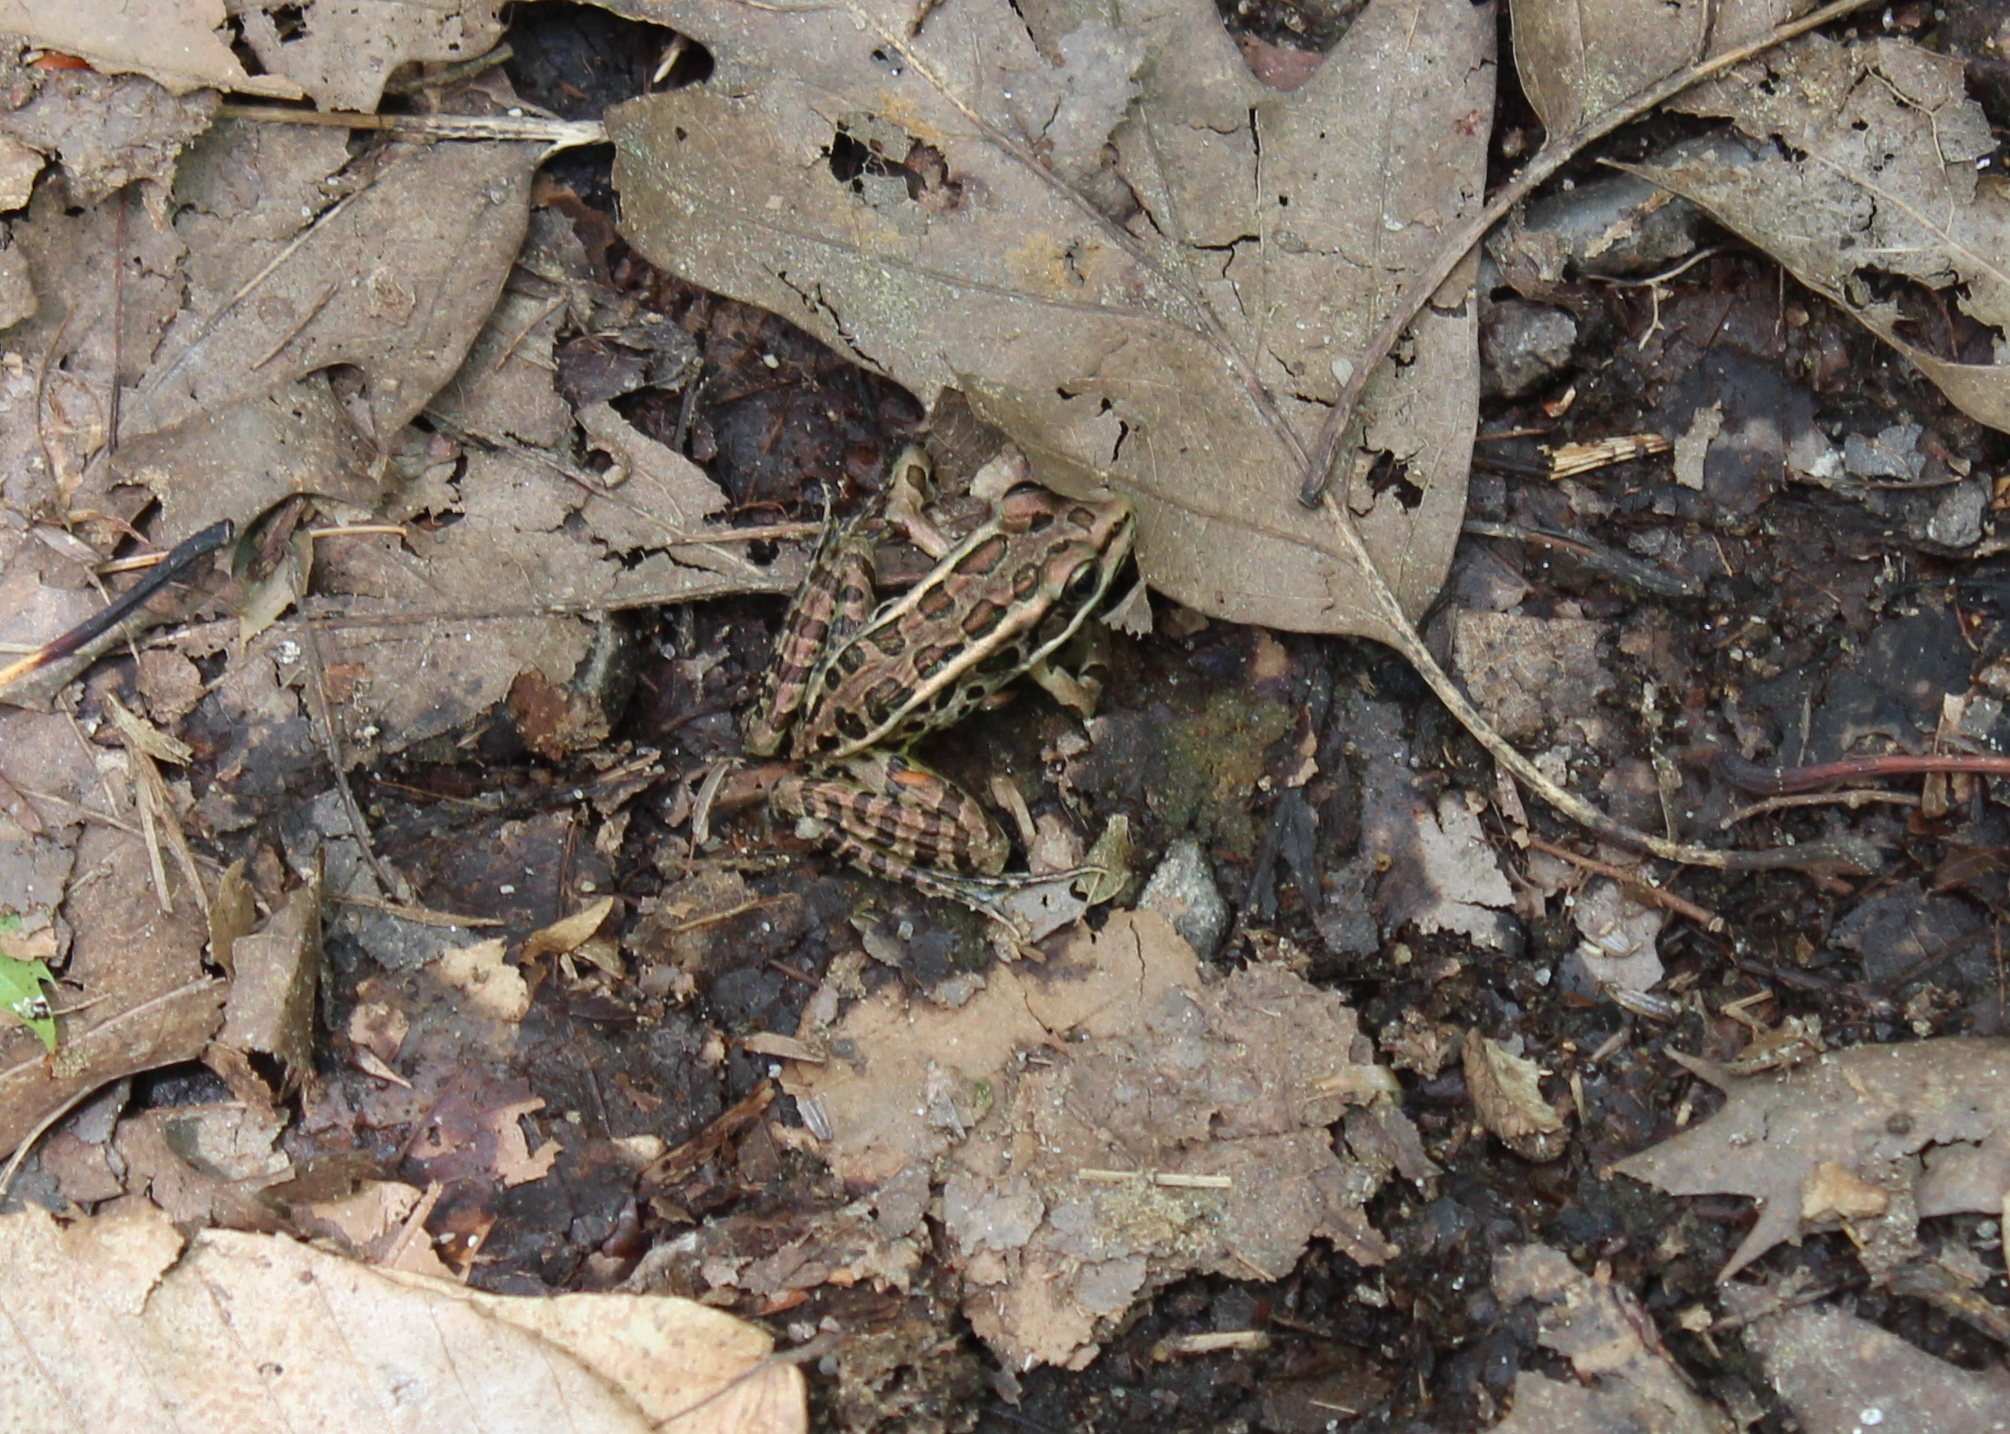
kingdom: Animalia
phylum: Chordata
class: Amphibia
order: Anura
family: Ranidae
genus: Lithobates
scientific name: Lithobates palustris
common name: Pickerel frog
